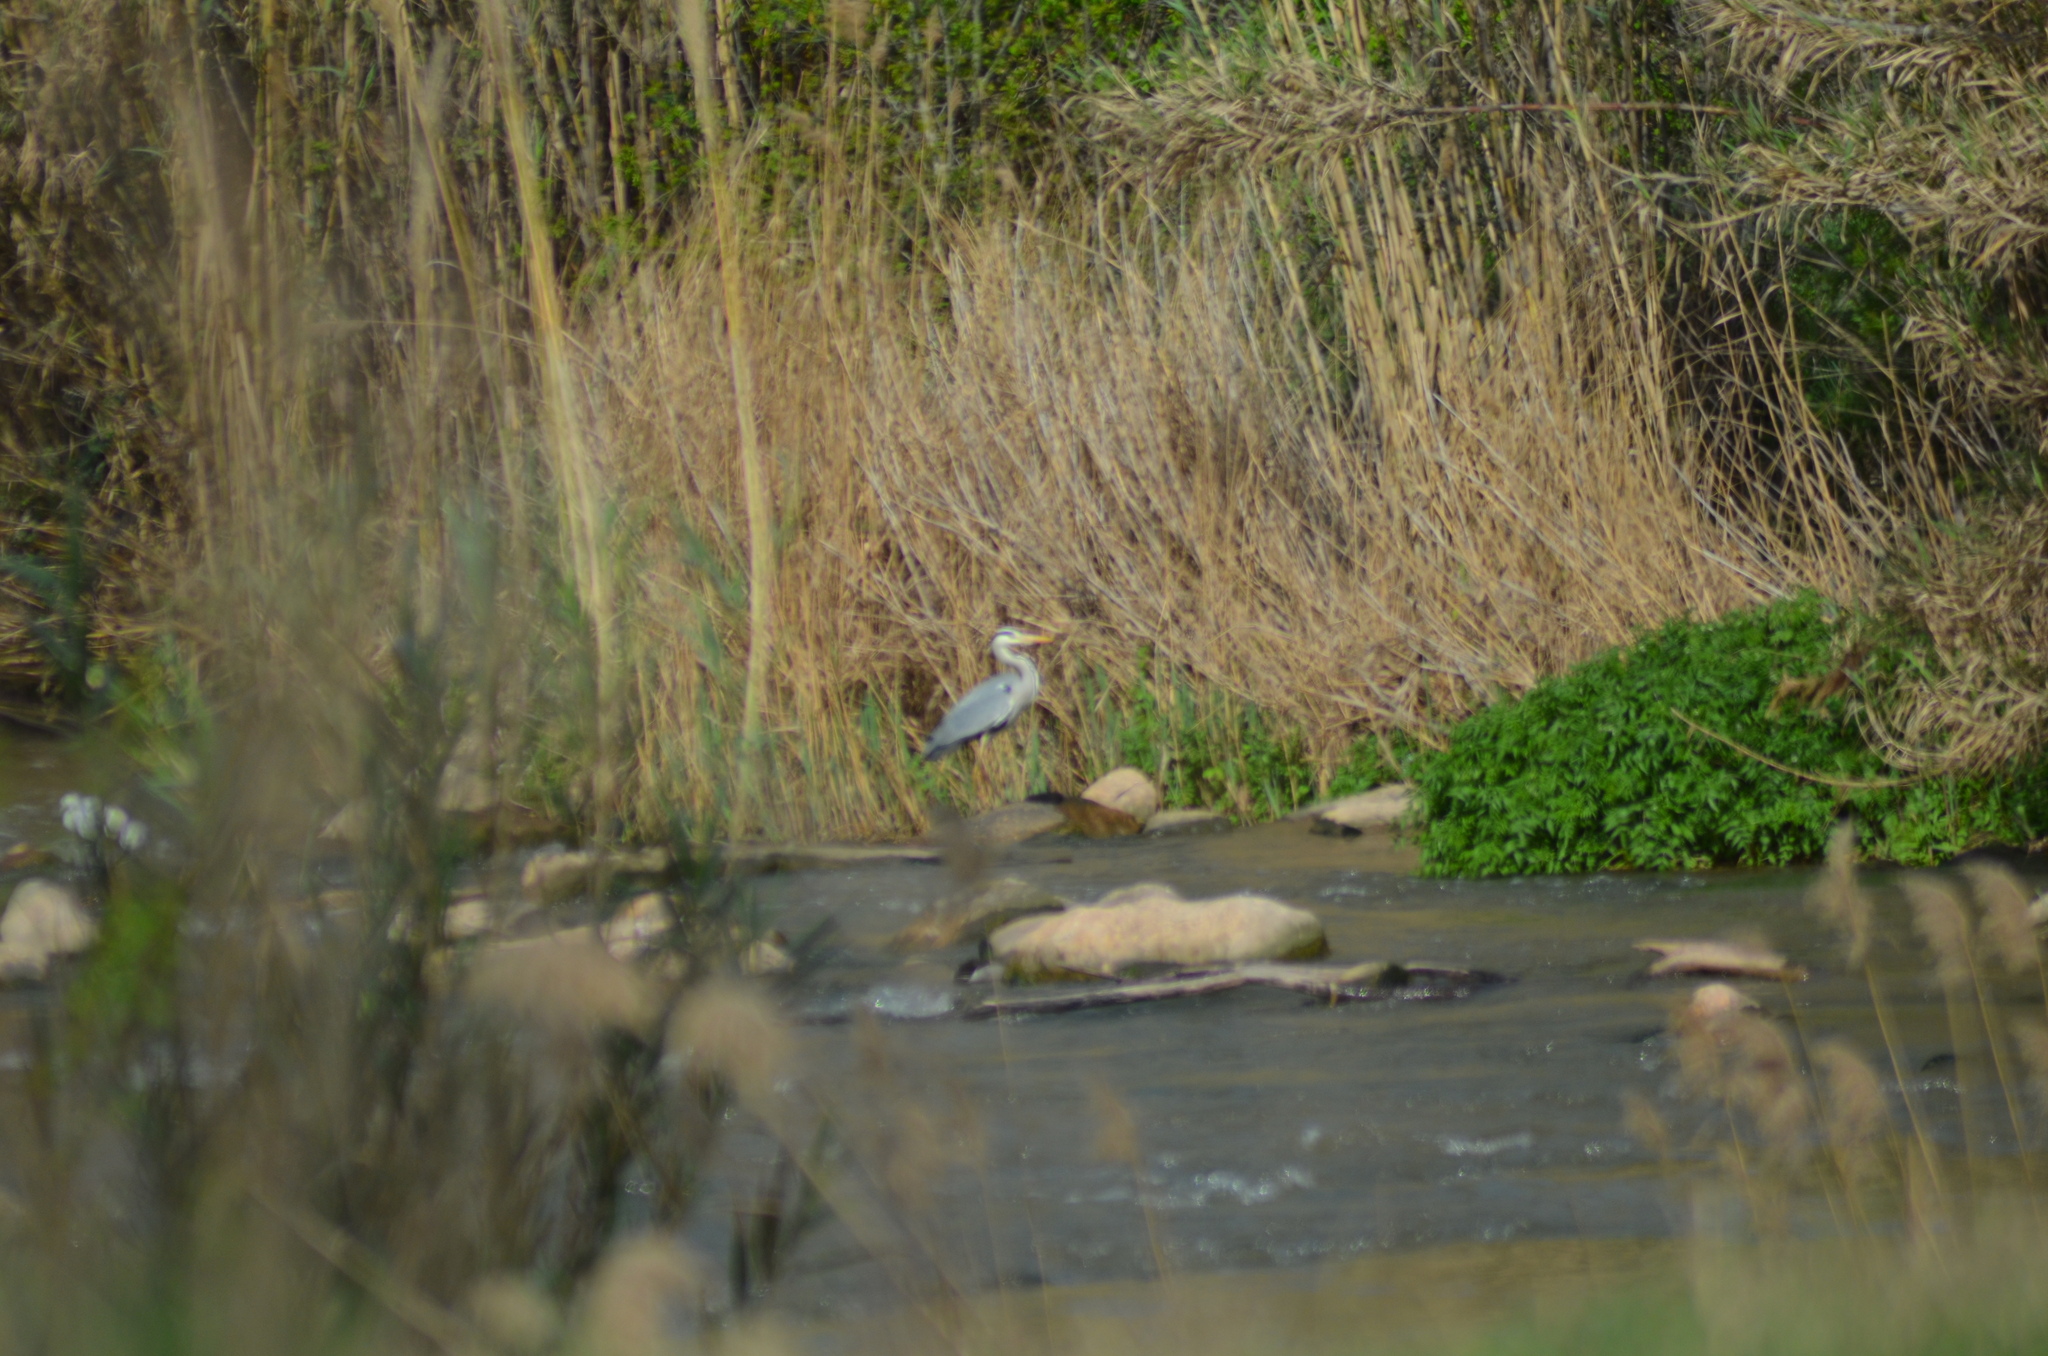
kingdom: Animalia
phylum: Chordata
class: Aves
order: Pelecaniformes
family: Ardeidae
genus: Ardea
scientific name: Ardea cinerea
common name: Grey heron
